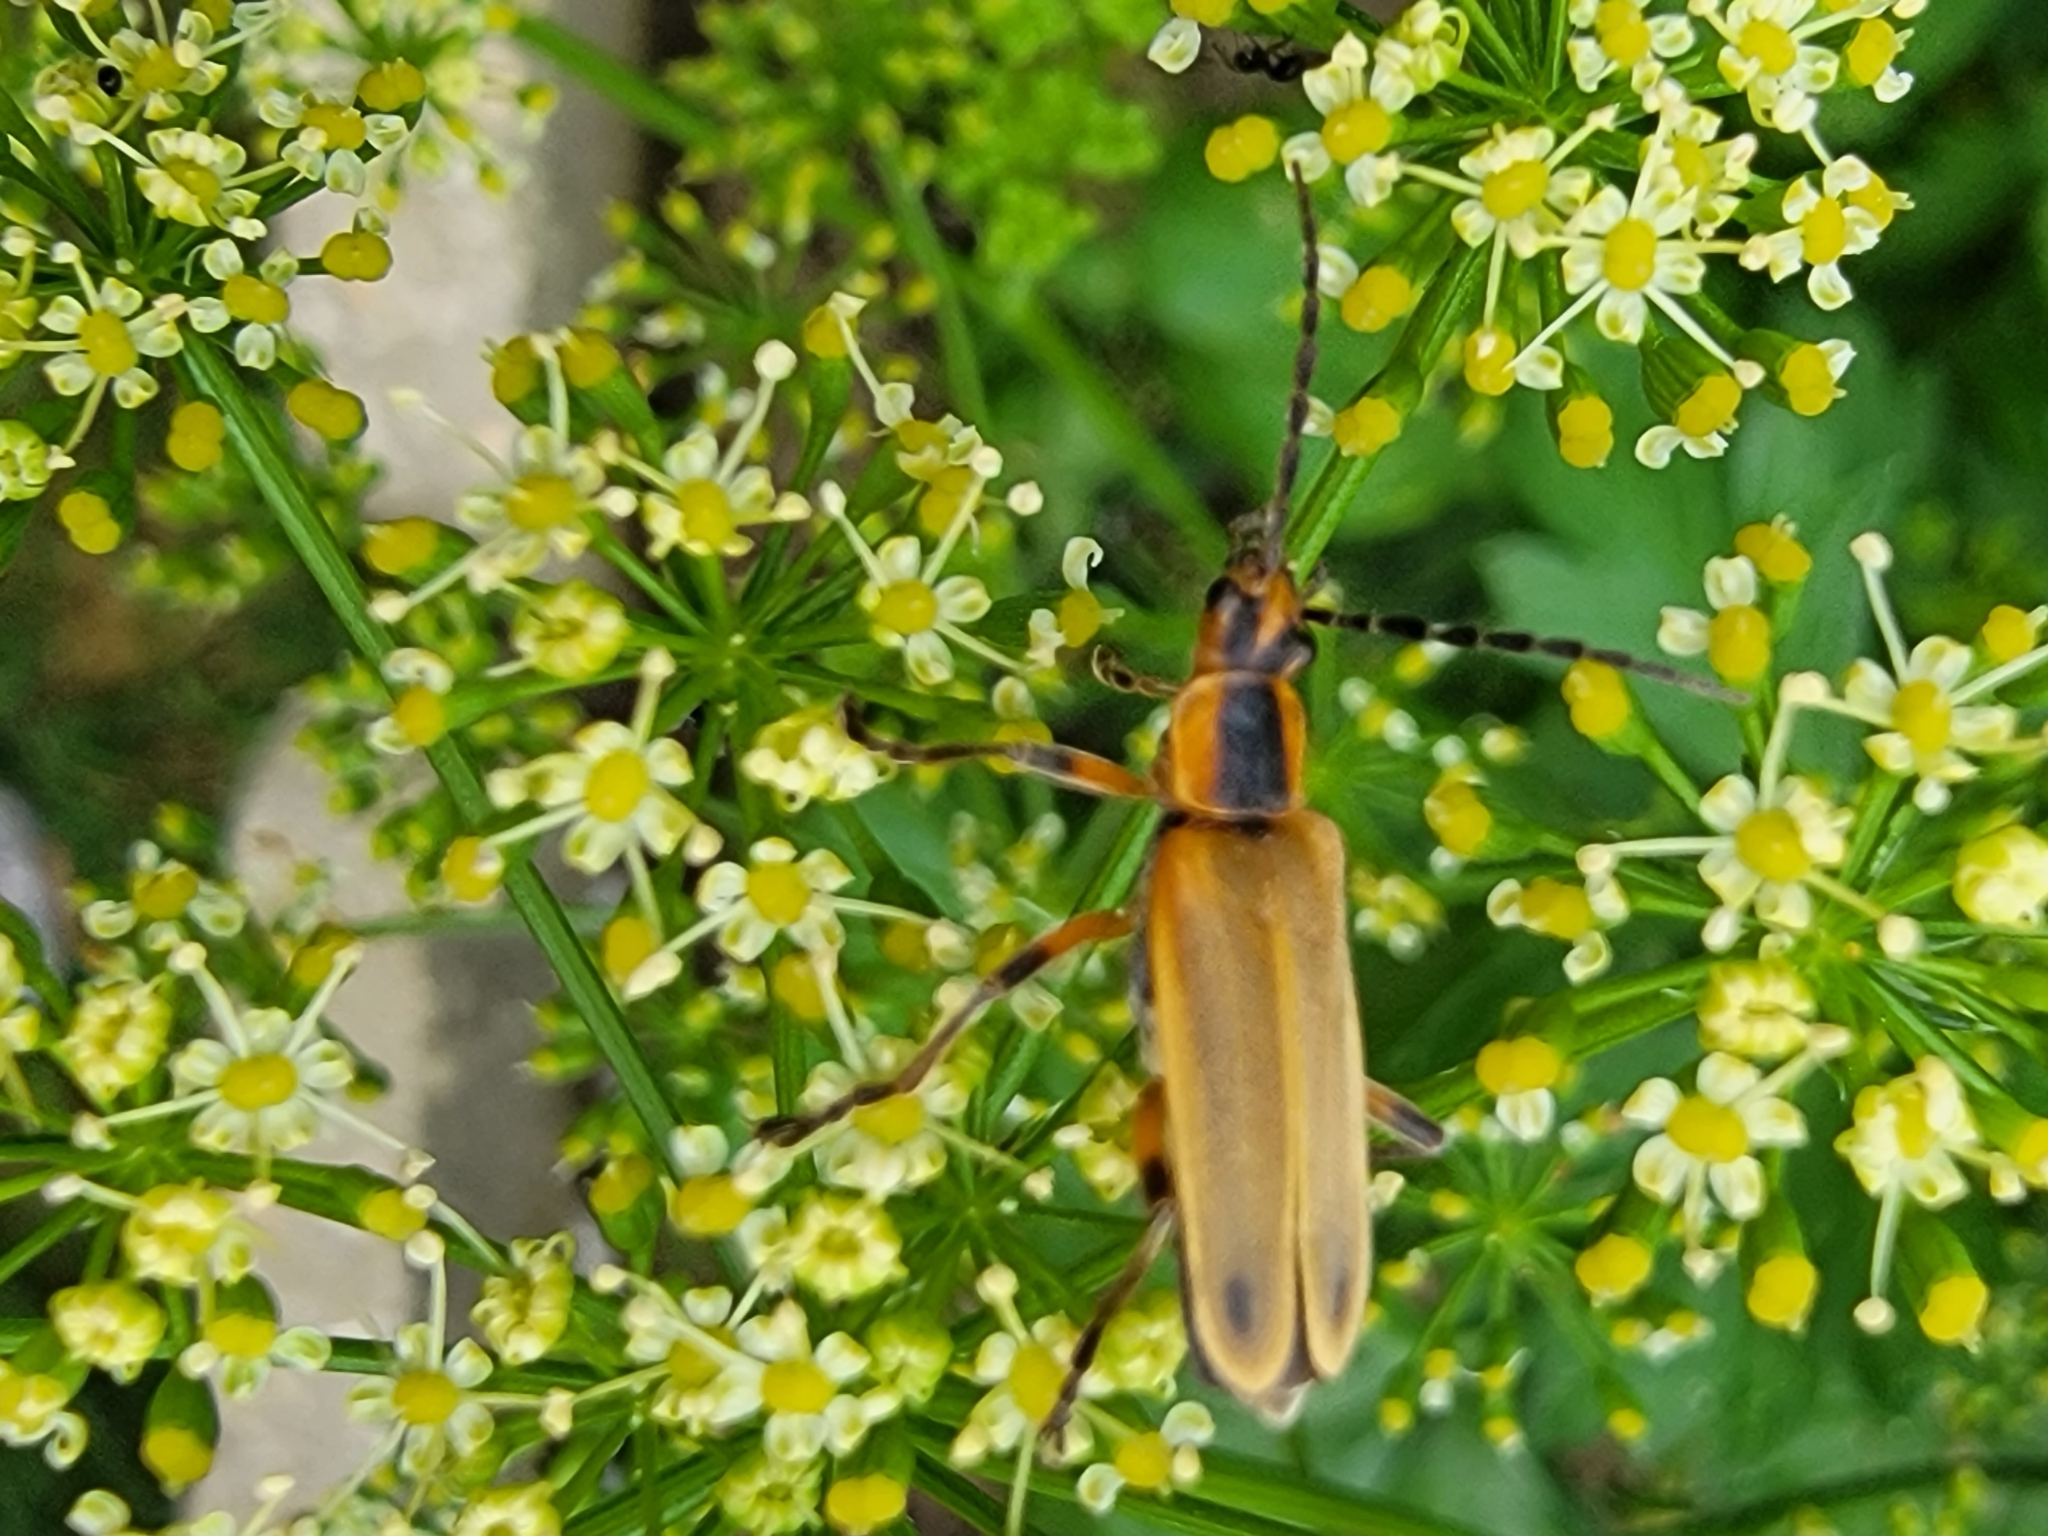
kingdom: Animalia
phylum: Arthropoda
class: Insecta
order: Coleoptera
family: Cantharidae
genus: Chauliognathus
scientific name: Chauliognathus marginatus
